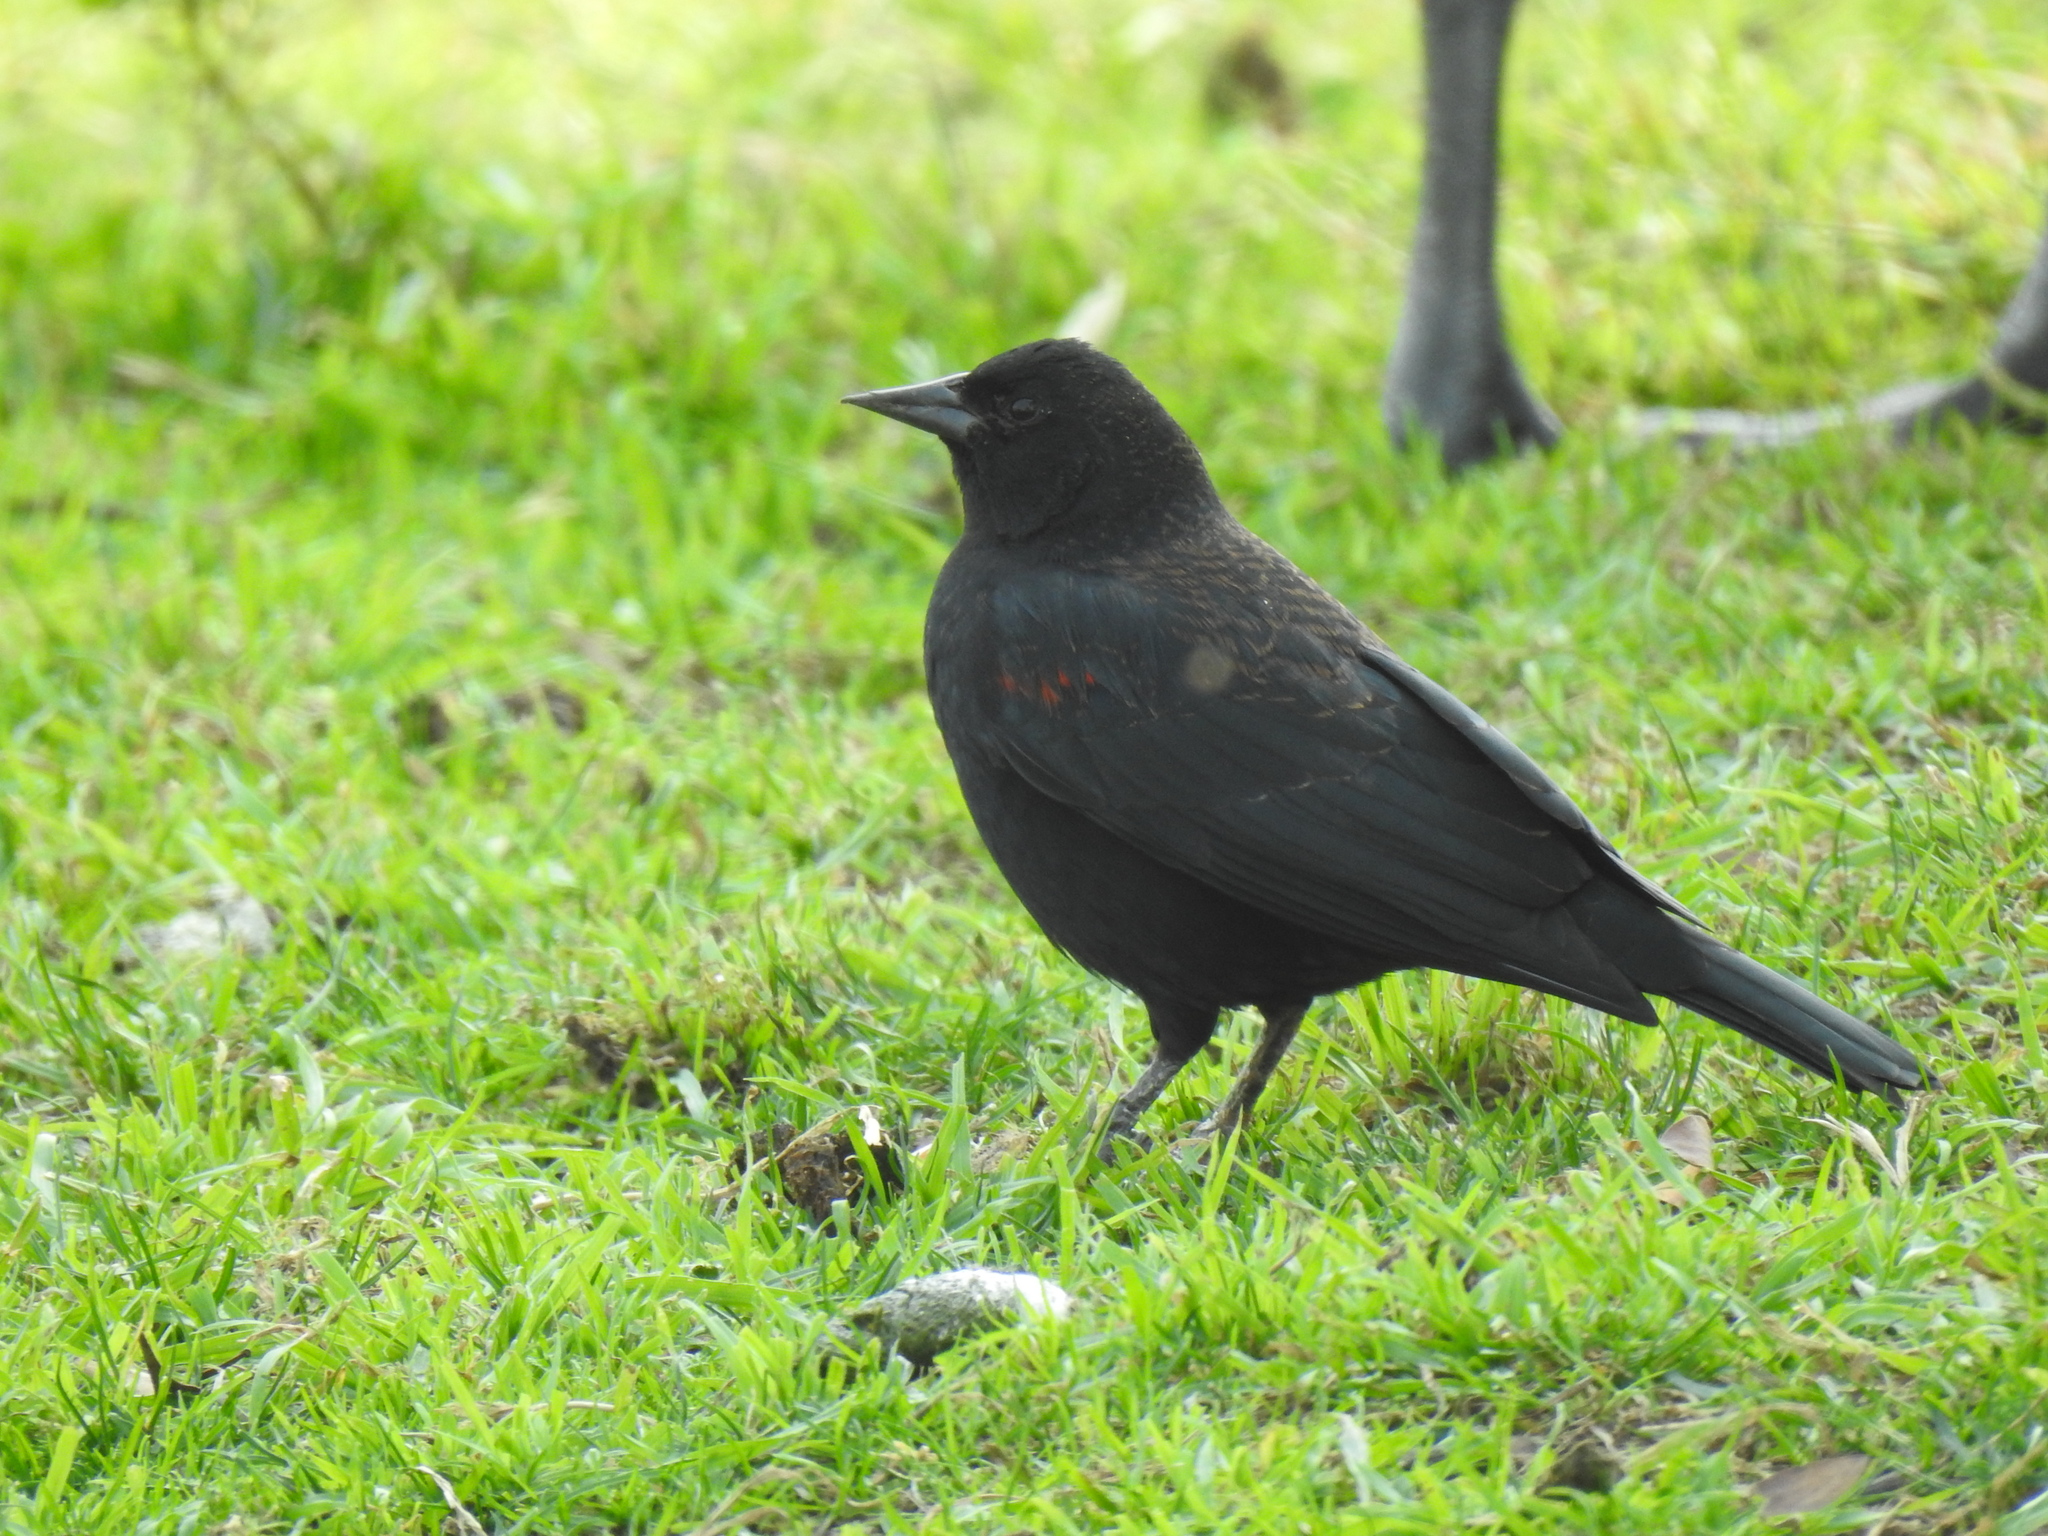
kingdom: Animalia
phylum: Chordata
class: Aves
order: Passeriformes
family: Icteridae
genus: Agelaius
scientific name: Agelaius phoeniceus
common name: Red-winged blackbird
